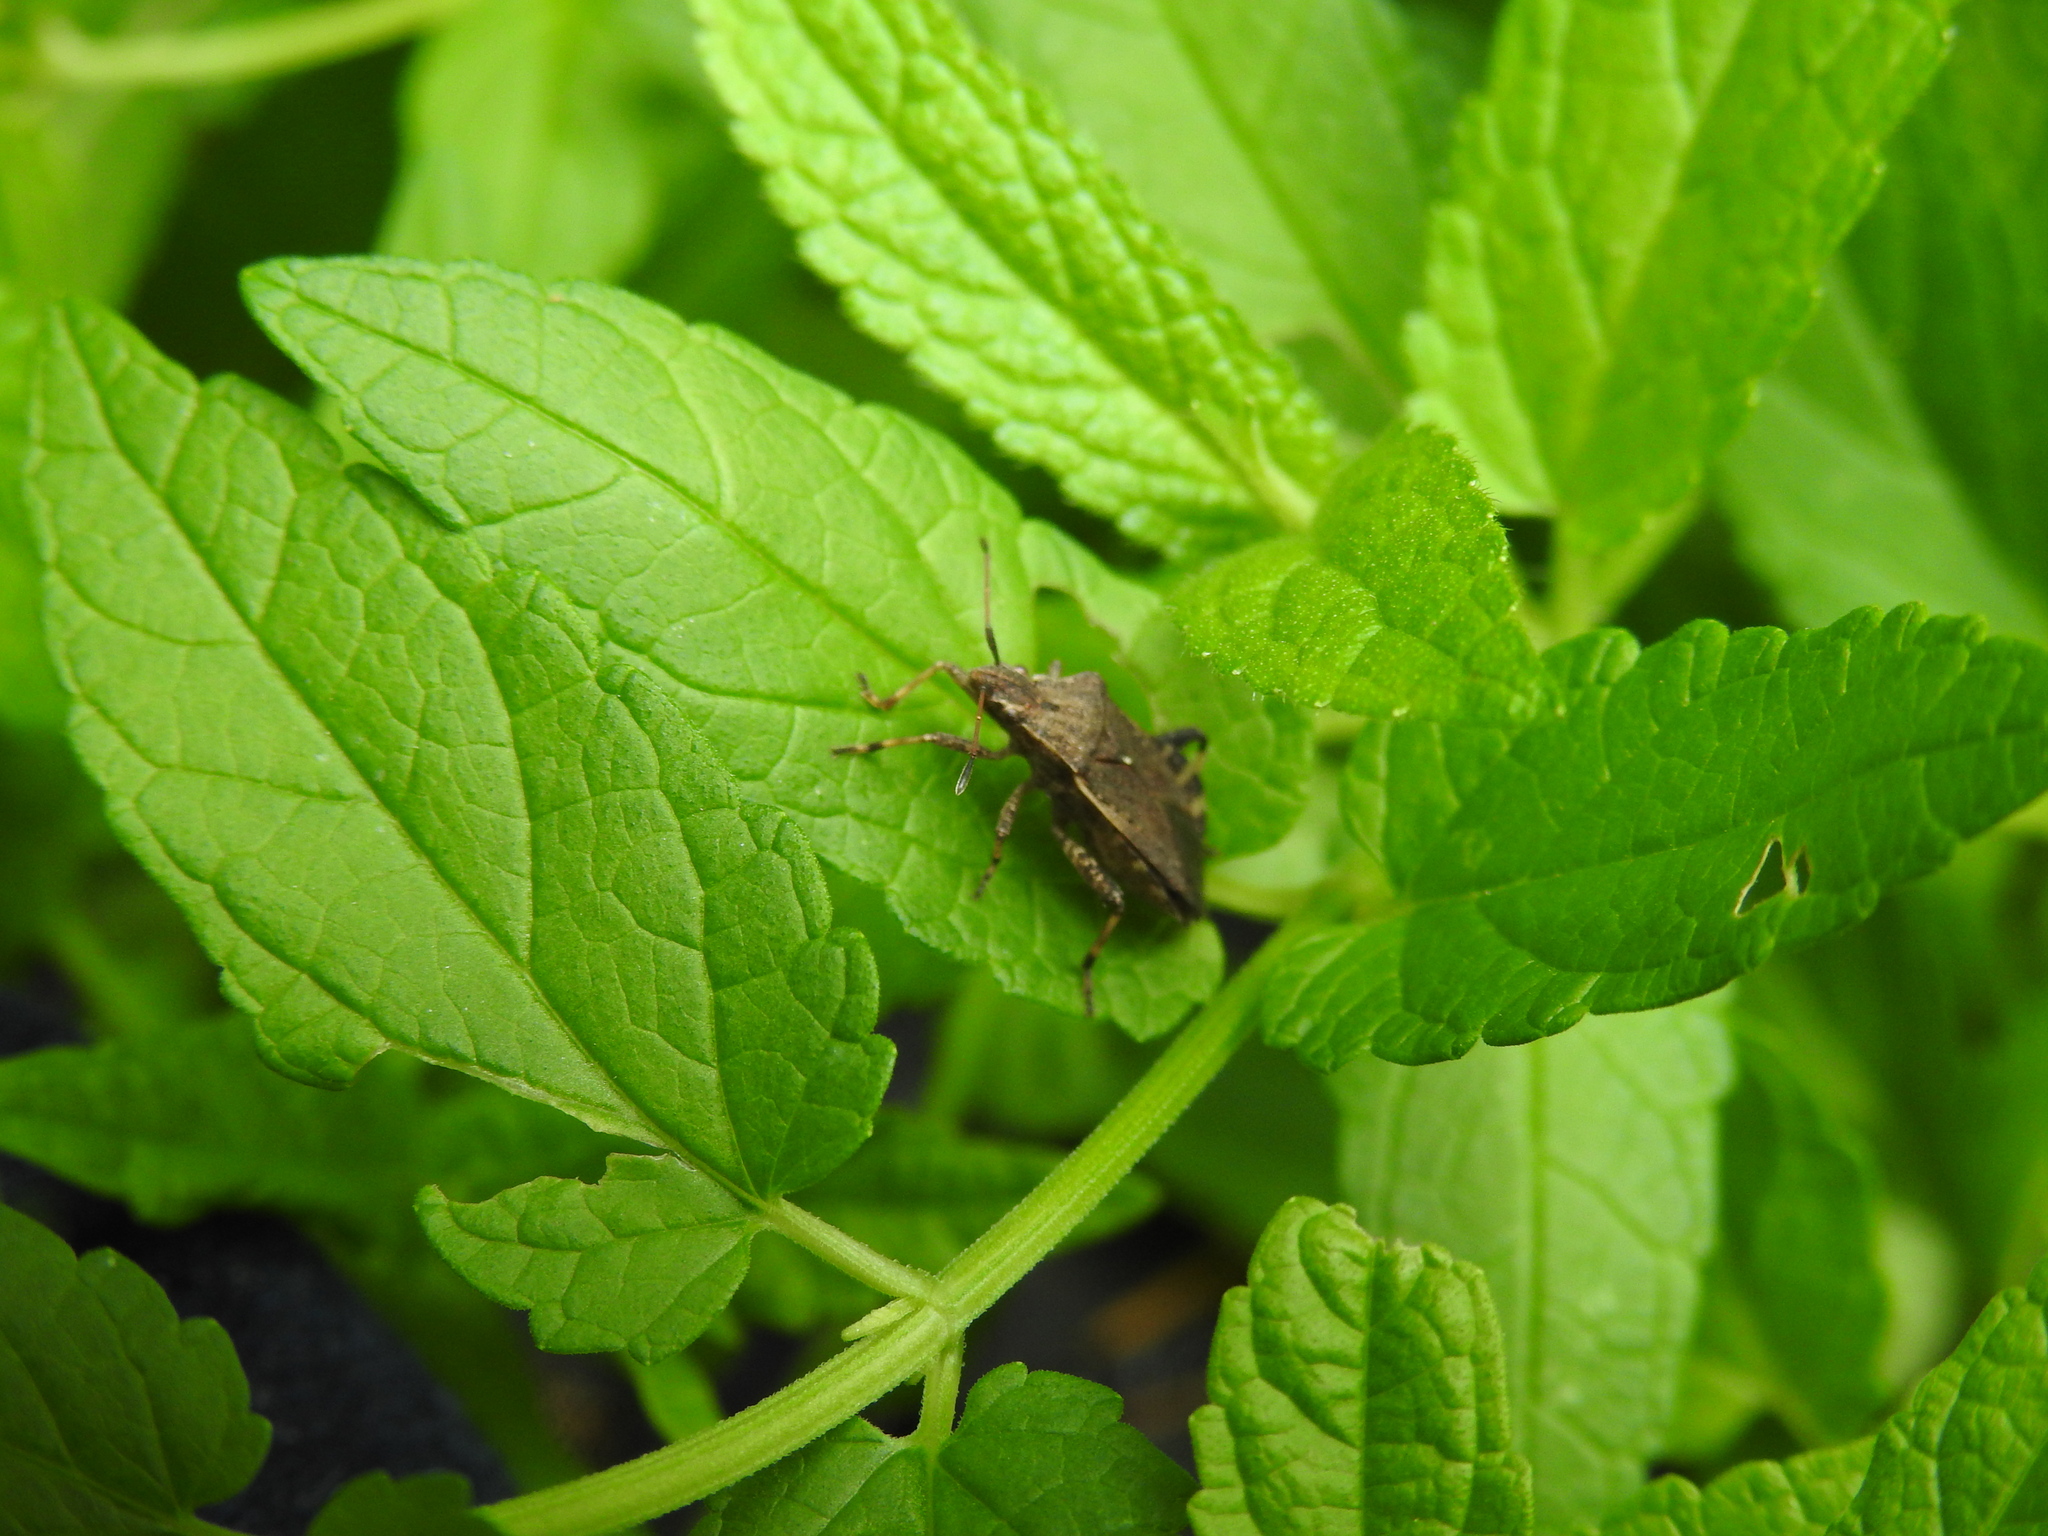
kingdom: Animalia
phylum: Arthropoda
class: Insecta
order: Hemiptera
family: Coreidae
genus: Ceraleptus
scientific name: Ceraleptus gracilicornis
